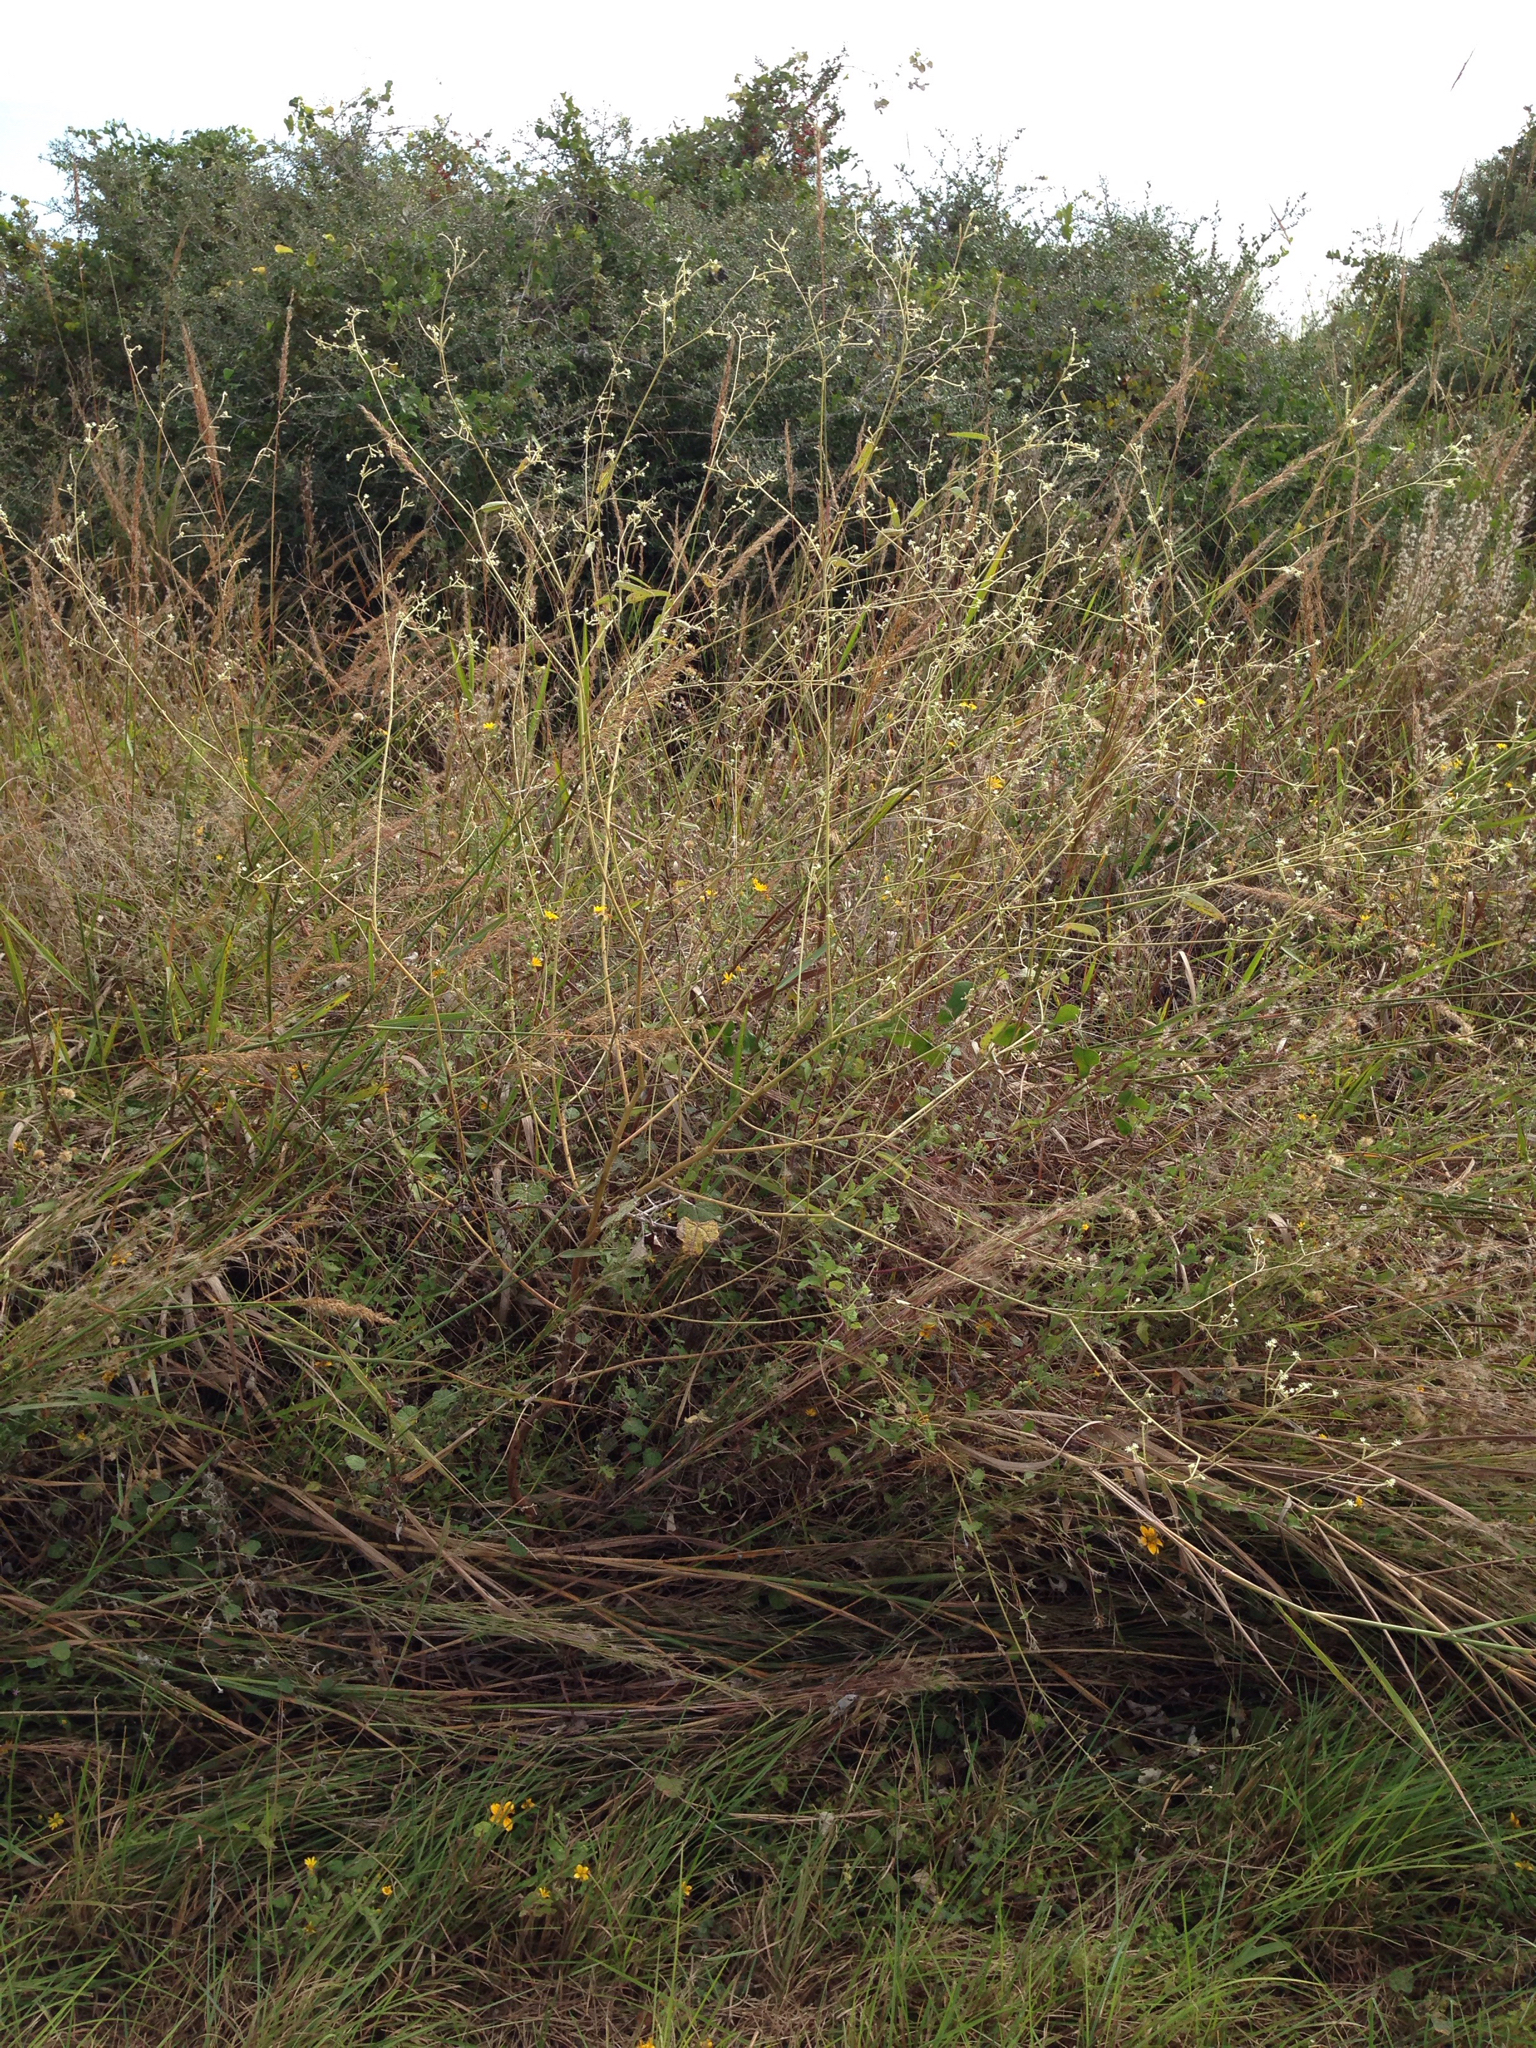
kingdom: Plantae
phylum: Tracheophyta
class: Magnoliopsida
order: Malpighiales
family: Euphorbiaceae
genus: Croton
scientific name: Croton parksii
